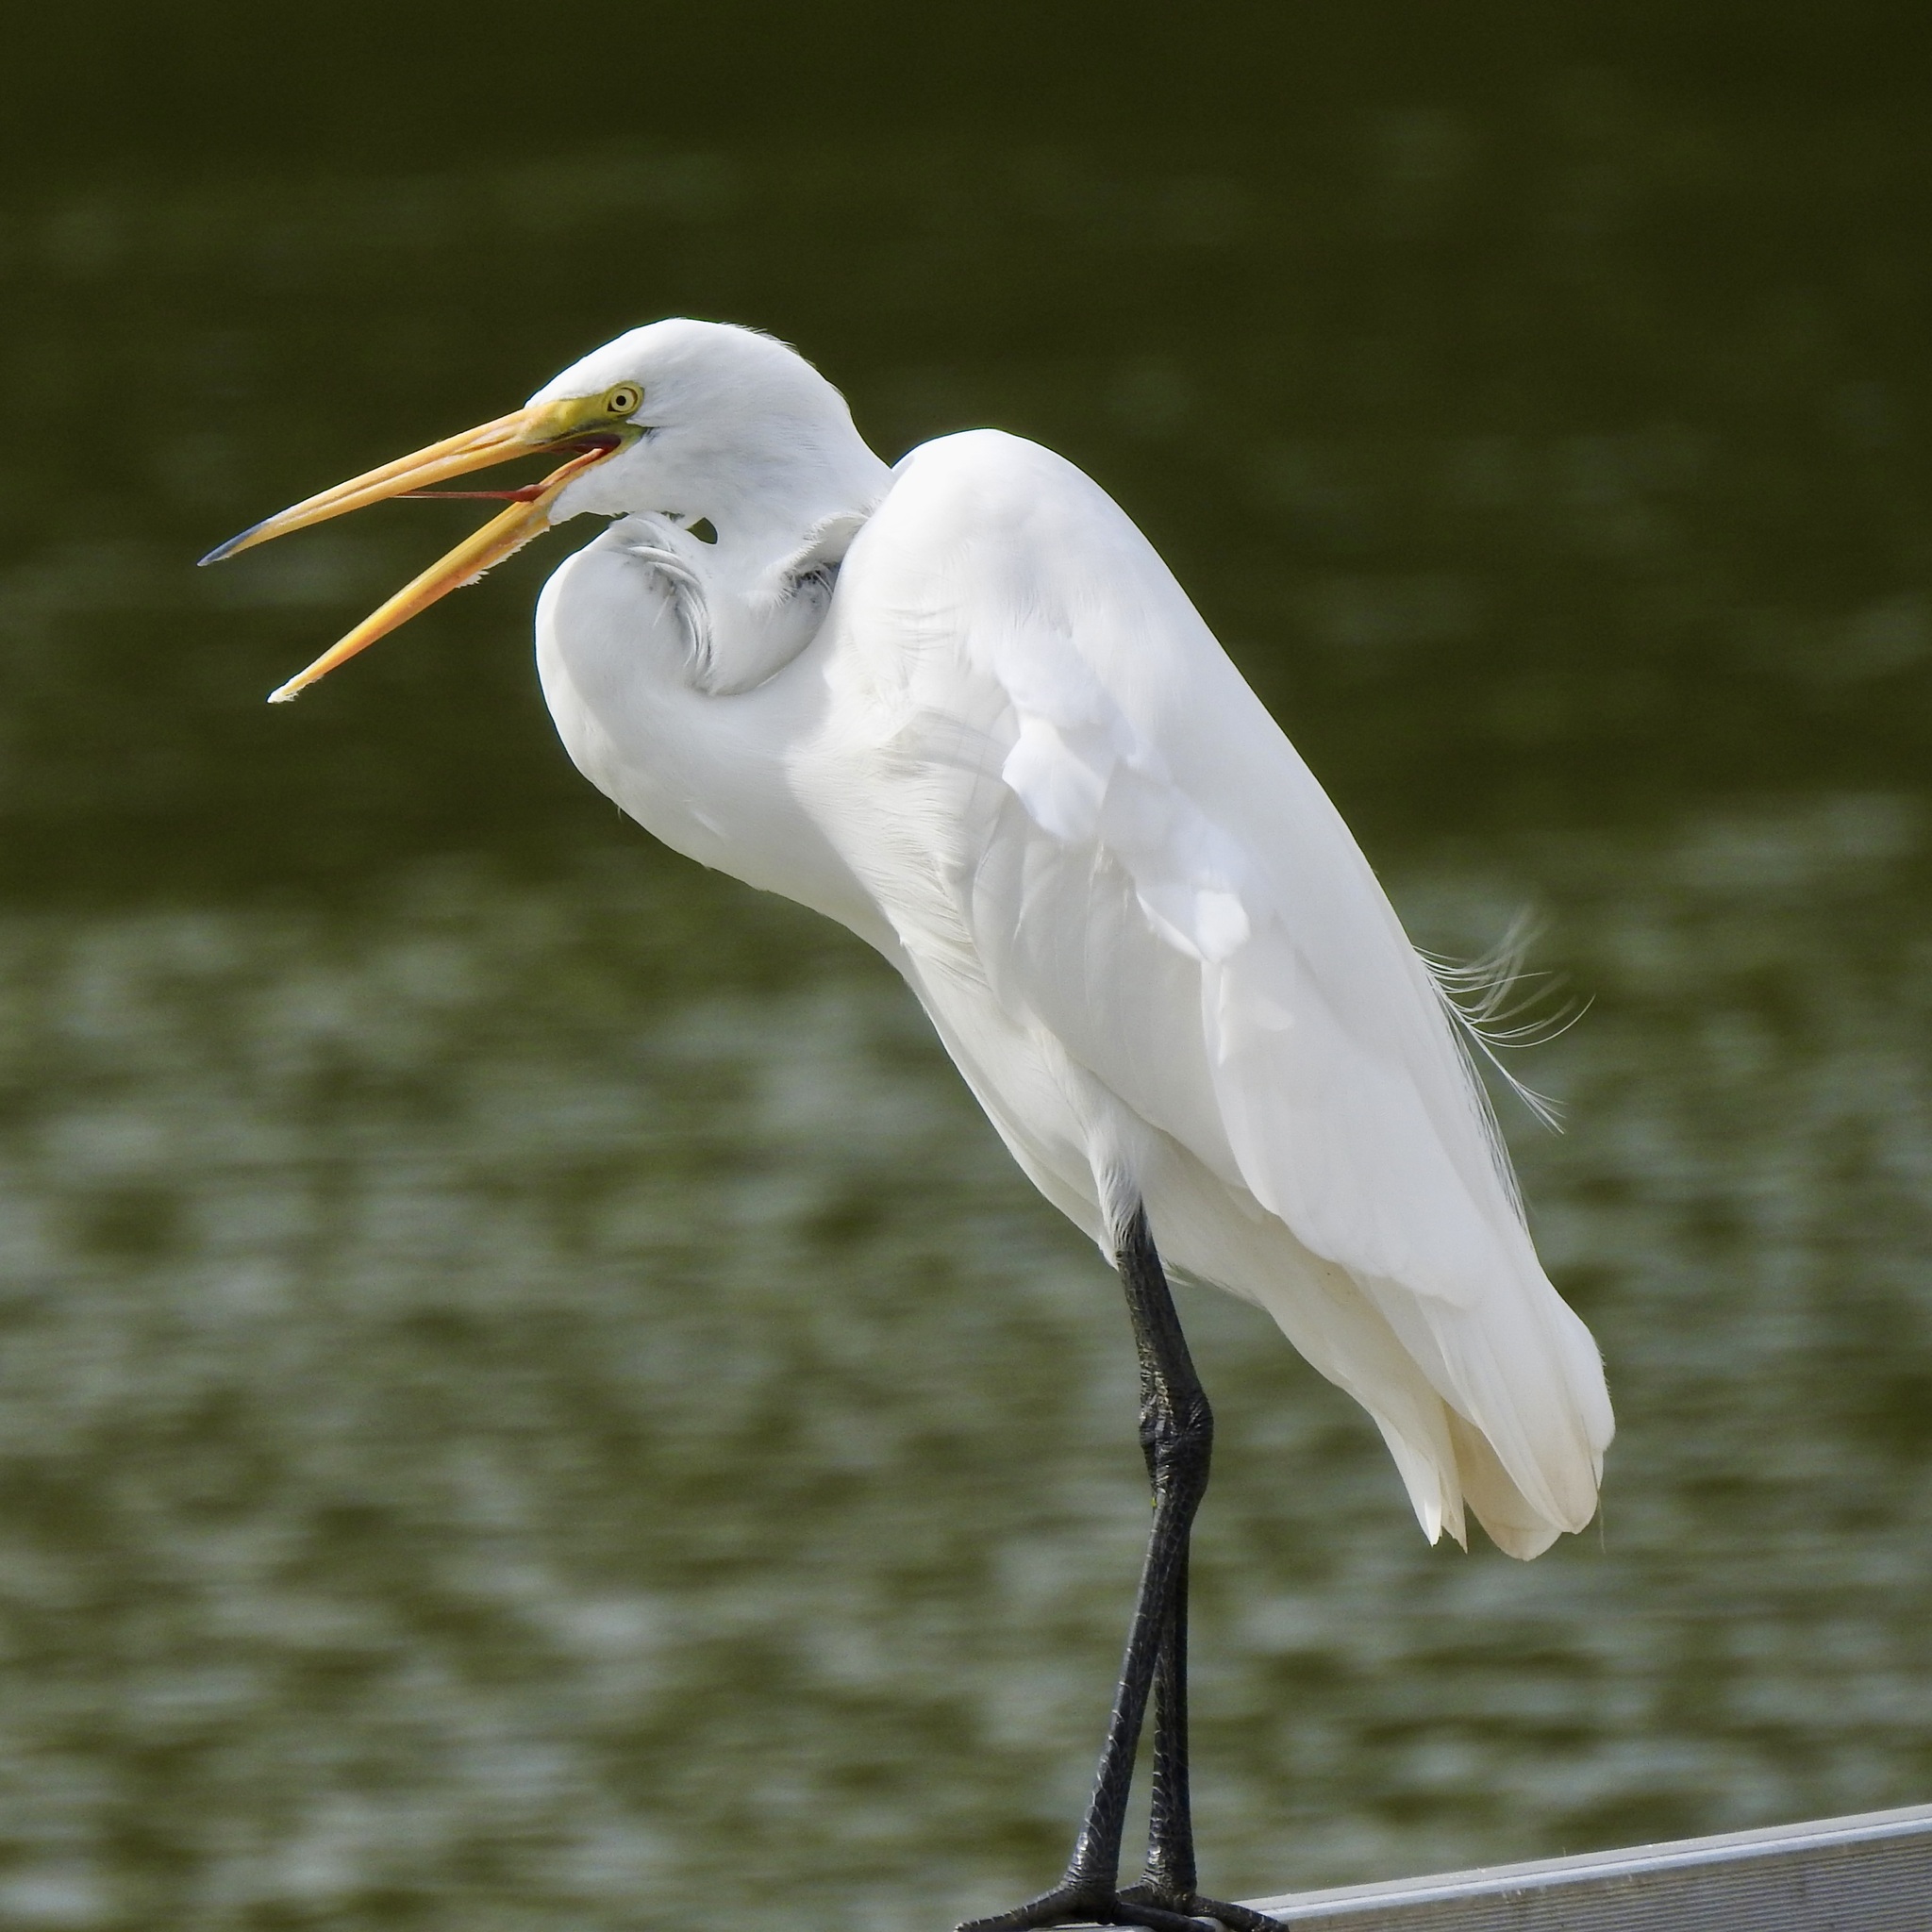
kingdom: Animalia
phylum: Chordata
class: Aves
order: Pelecaniformes
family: Ardeidae
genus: Ardea
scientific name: Ardea alba
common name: Great egret
